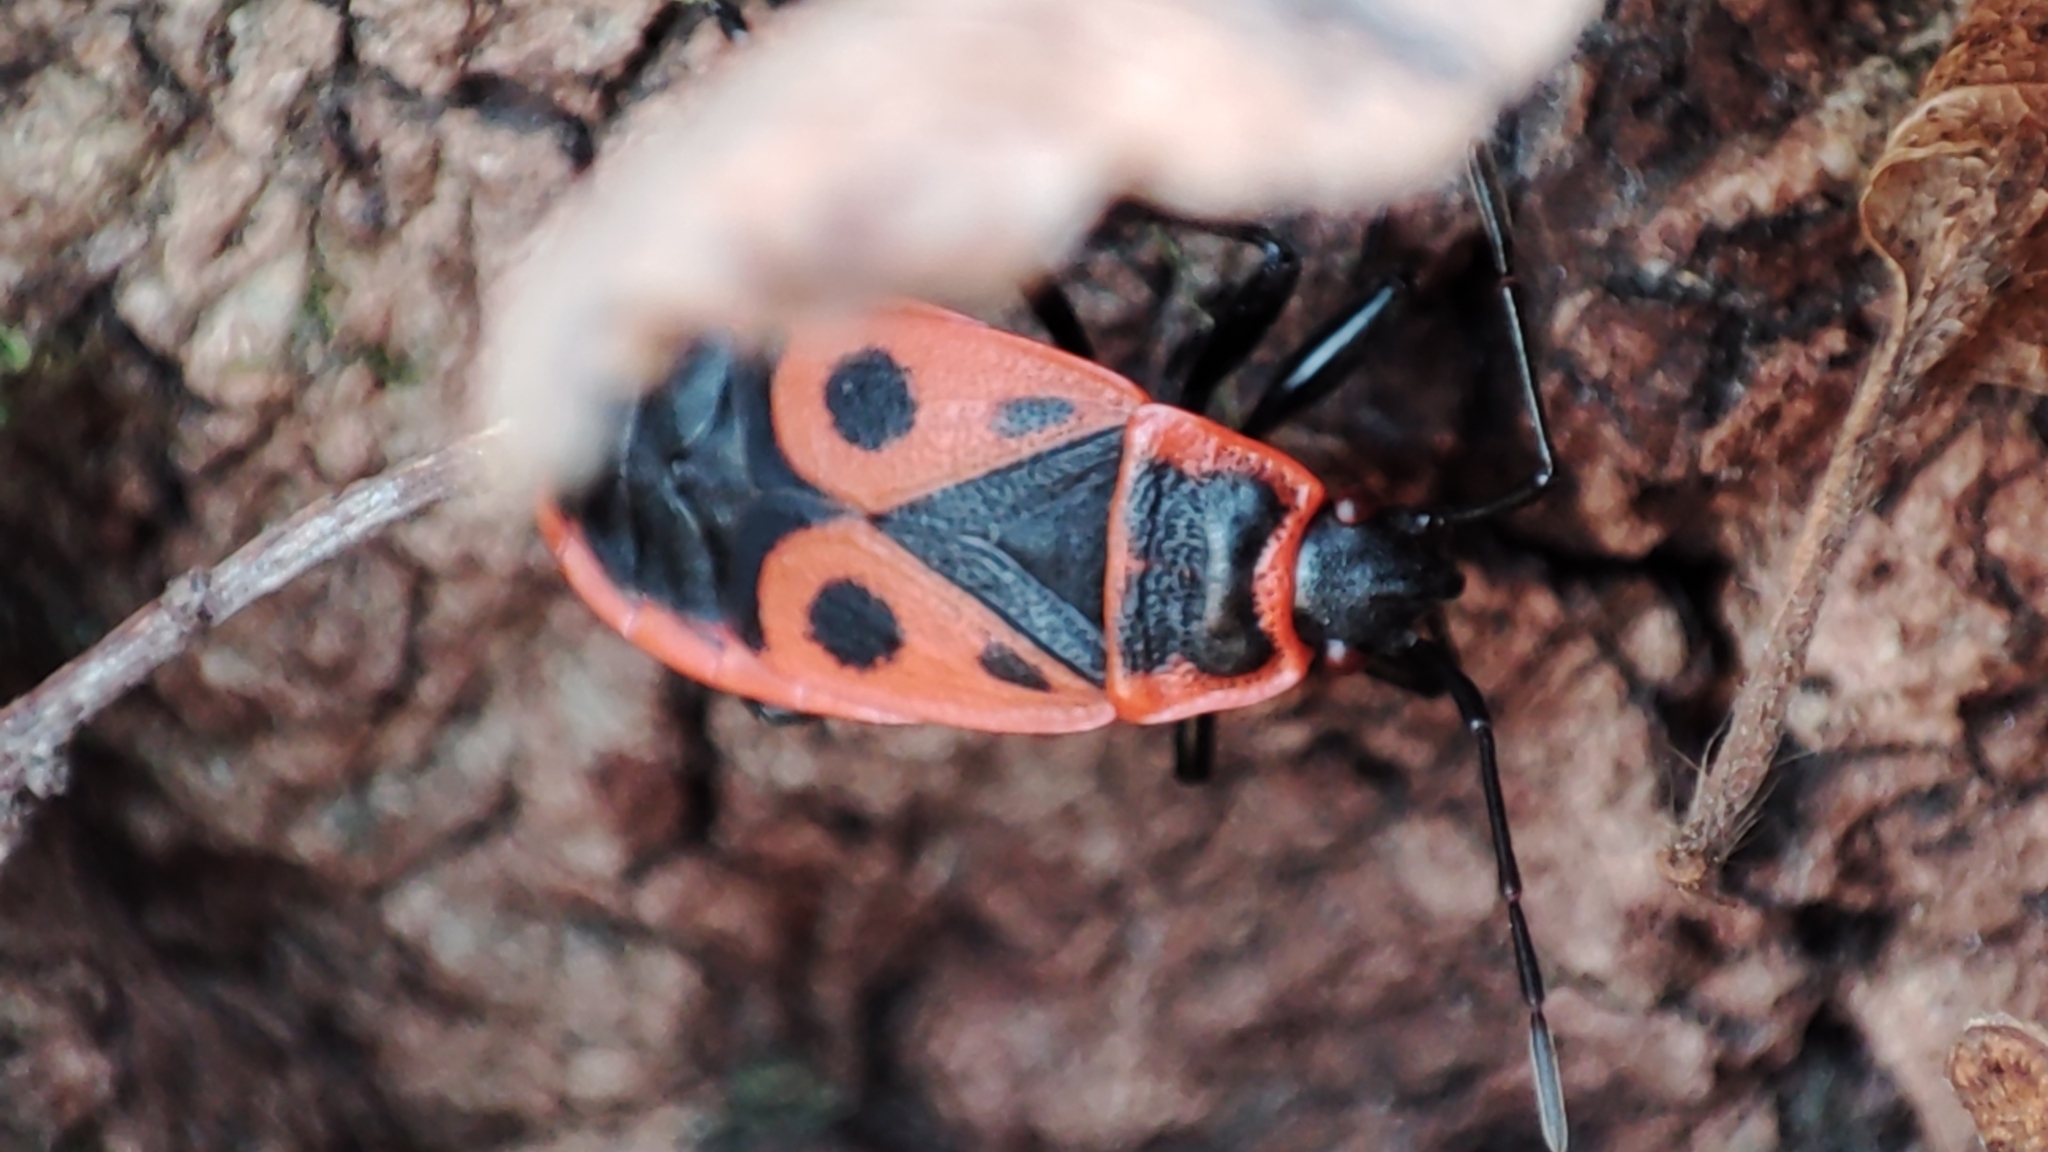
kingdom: Animalia
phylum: Arthropoda
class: Insecta
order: Hemiptera
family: Pyrrhocoridae
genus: Pyrrhocoris
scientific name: Pyrrhocoris apterus
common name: Firebug
